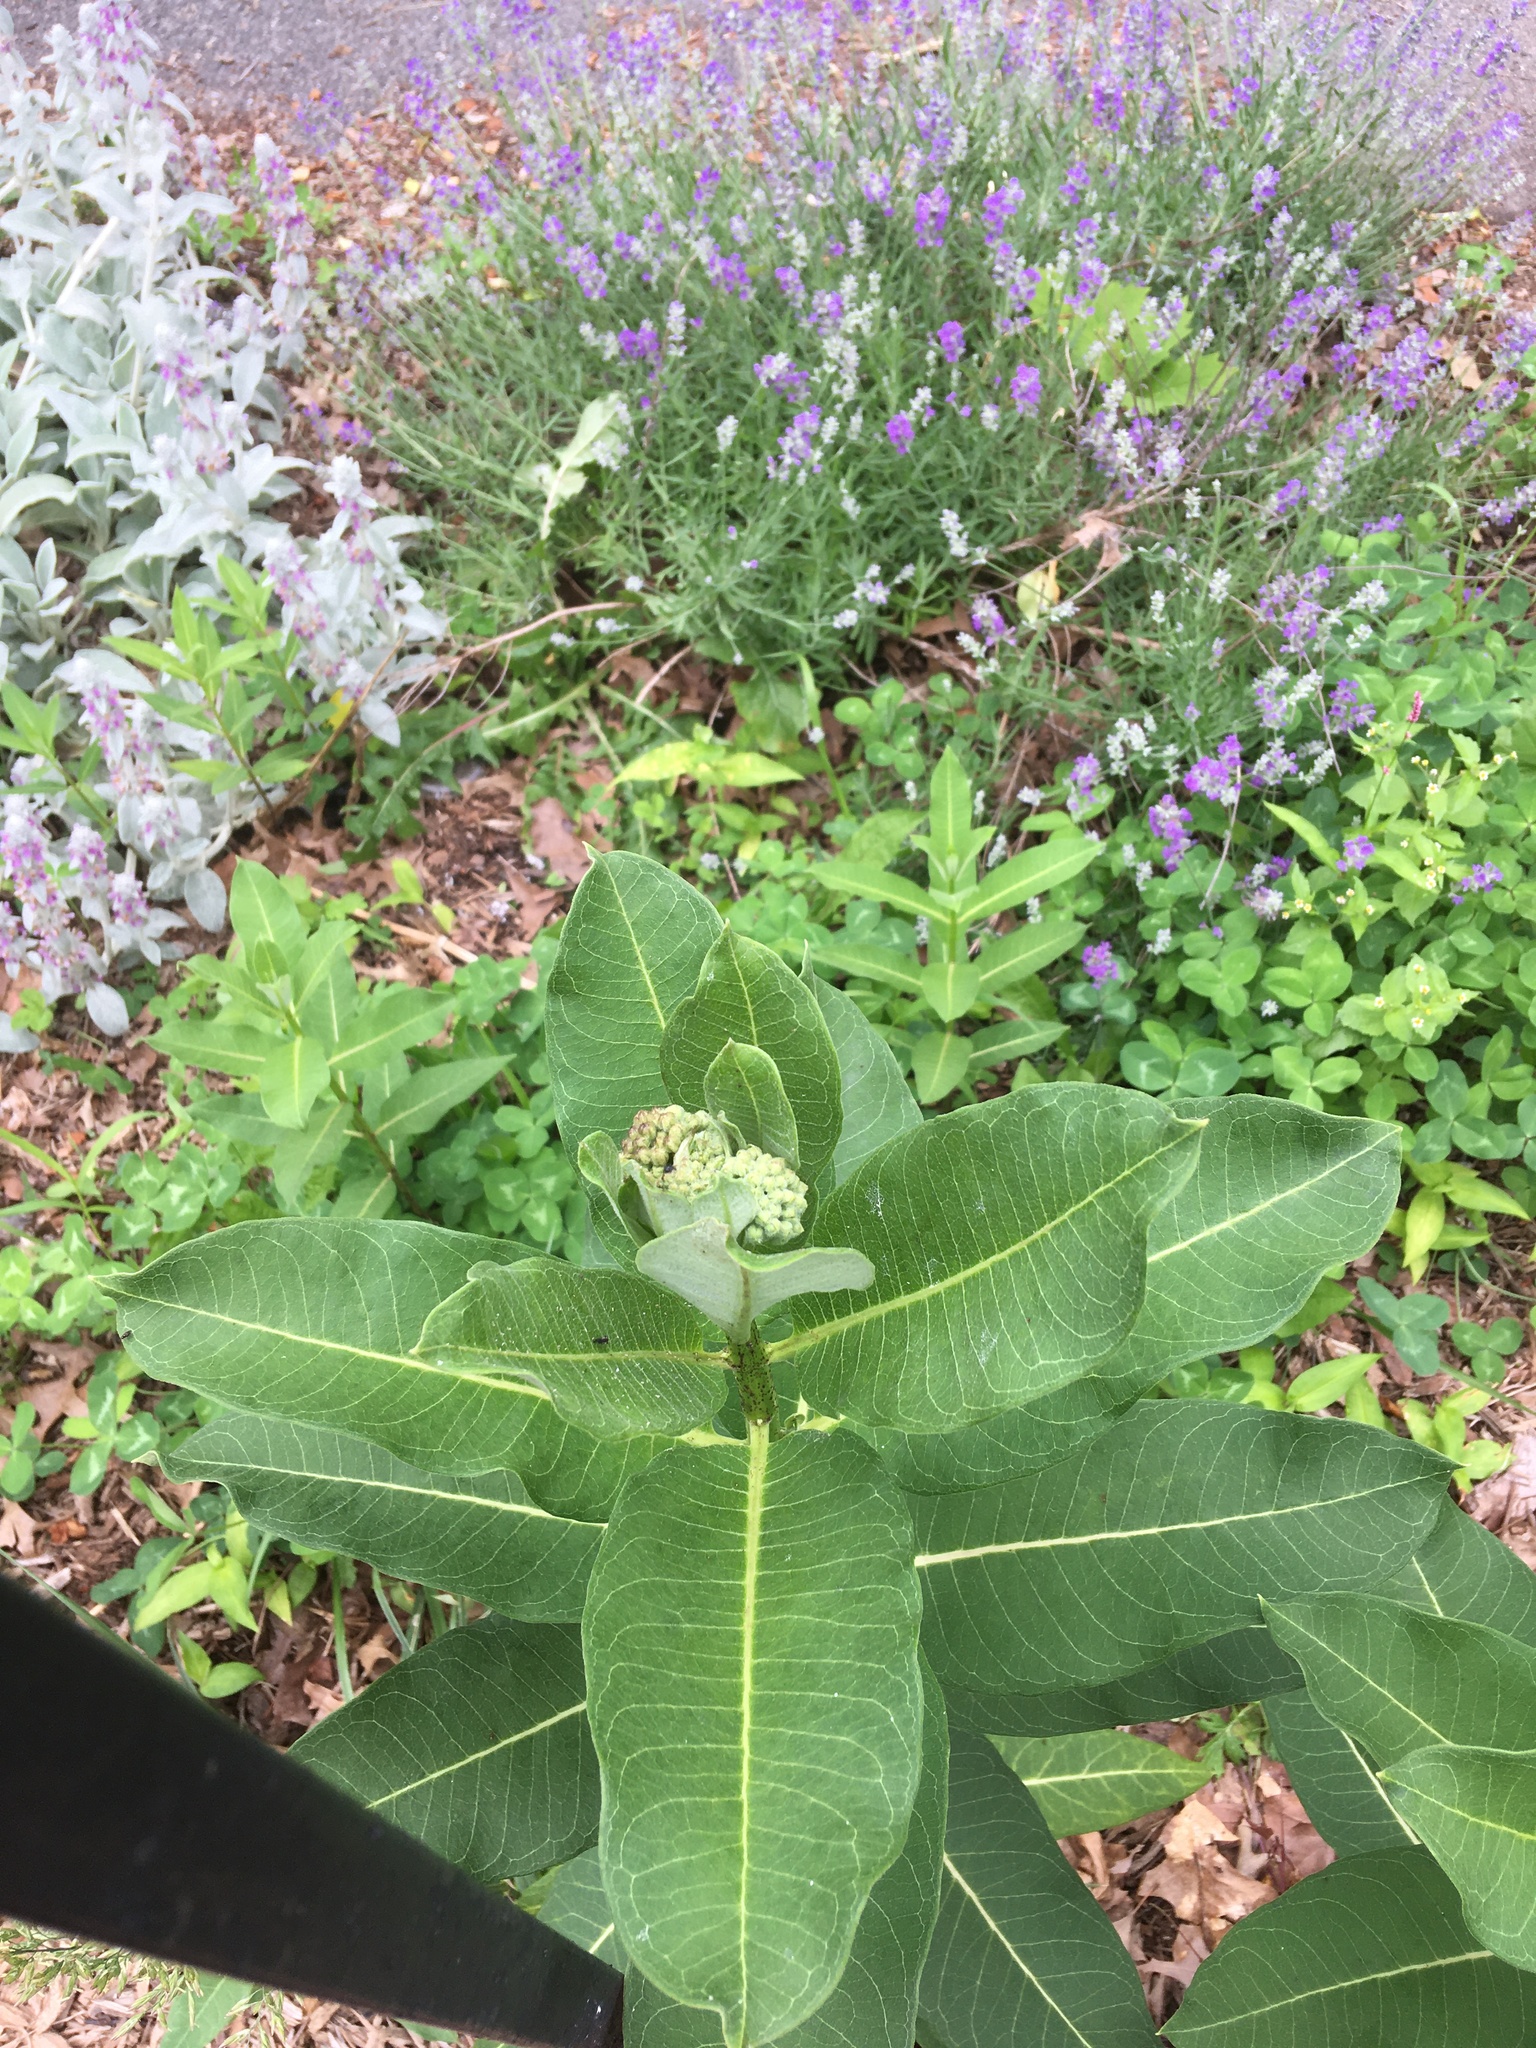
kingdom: Plantae
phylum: Tracheophyta
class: Magnoliopsida
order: Gentianales
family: Apocynaceae
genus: Asclepias
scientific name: Asclepias syriaca
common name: Common milkweed
